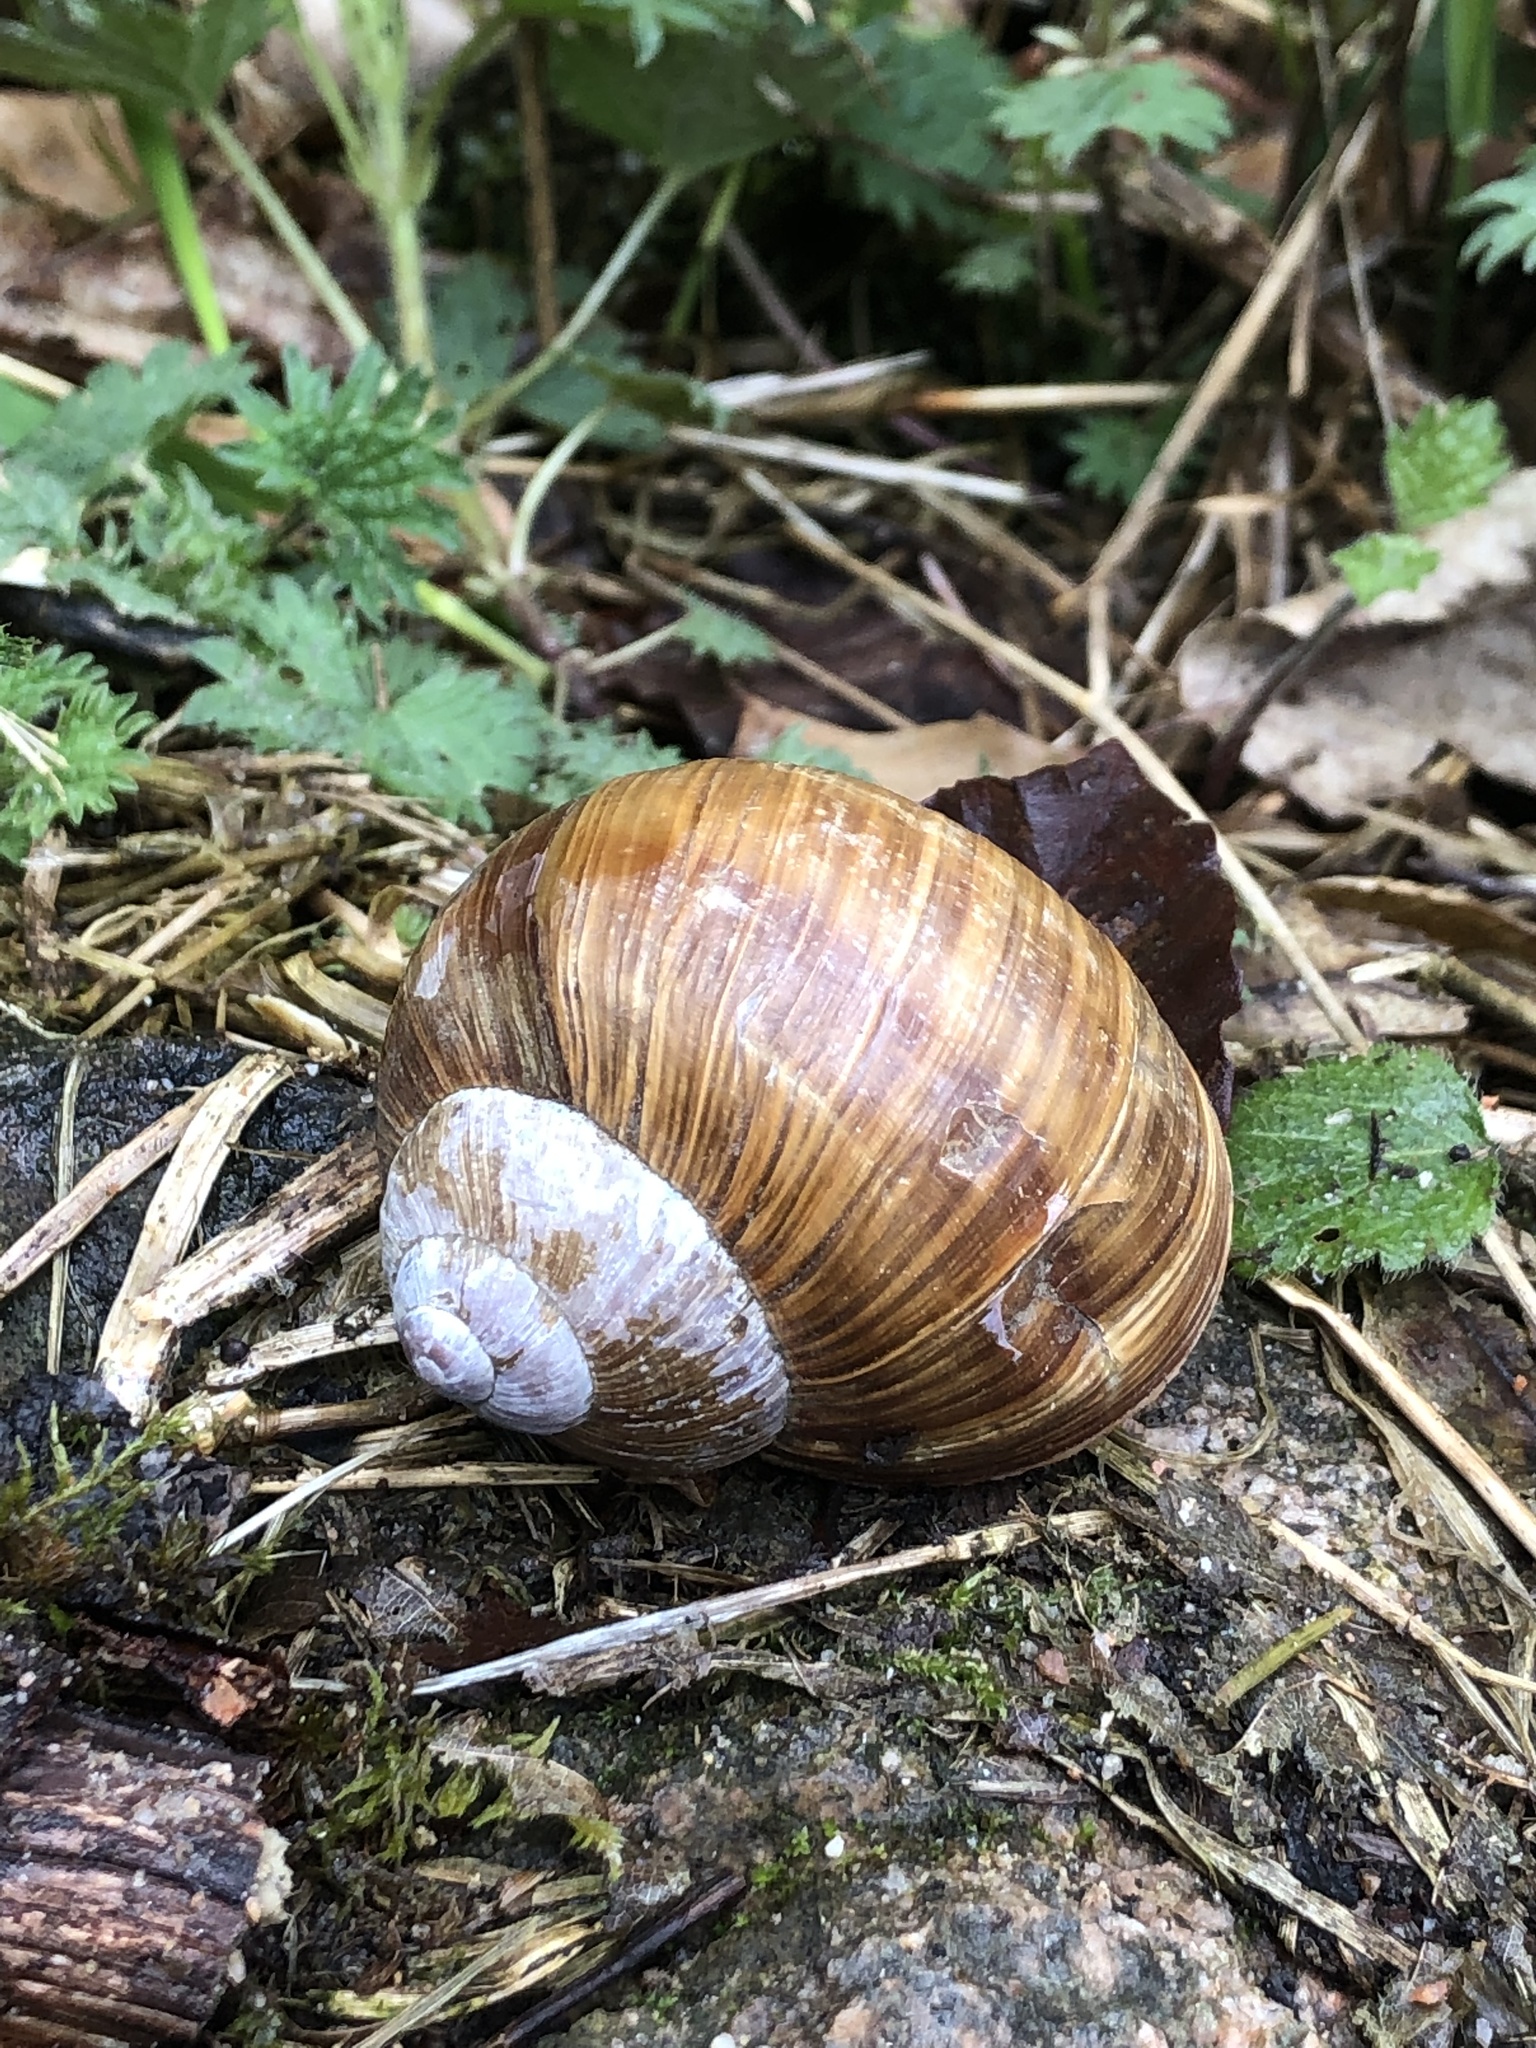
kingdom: Animalia
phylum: Mollusca
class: Gastropoda
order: Stylommatophora
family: Helicidae
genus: Helix
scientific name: Helix pomatia
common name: Roman snail
